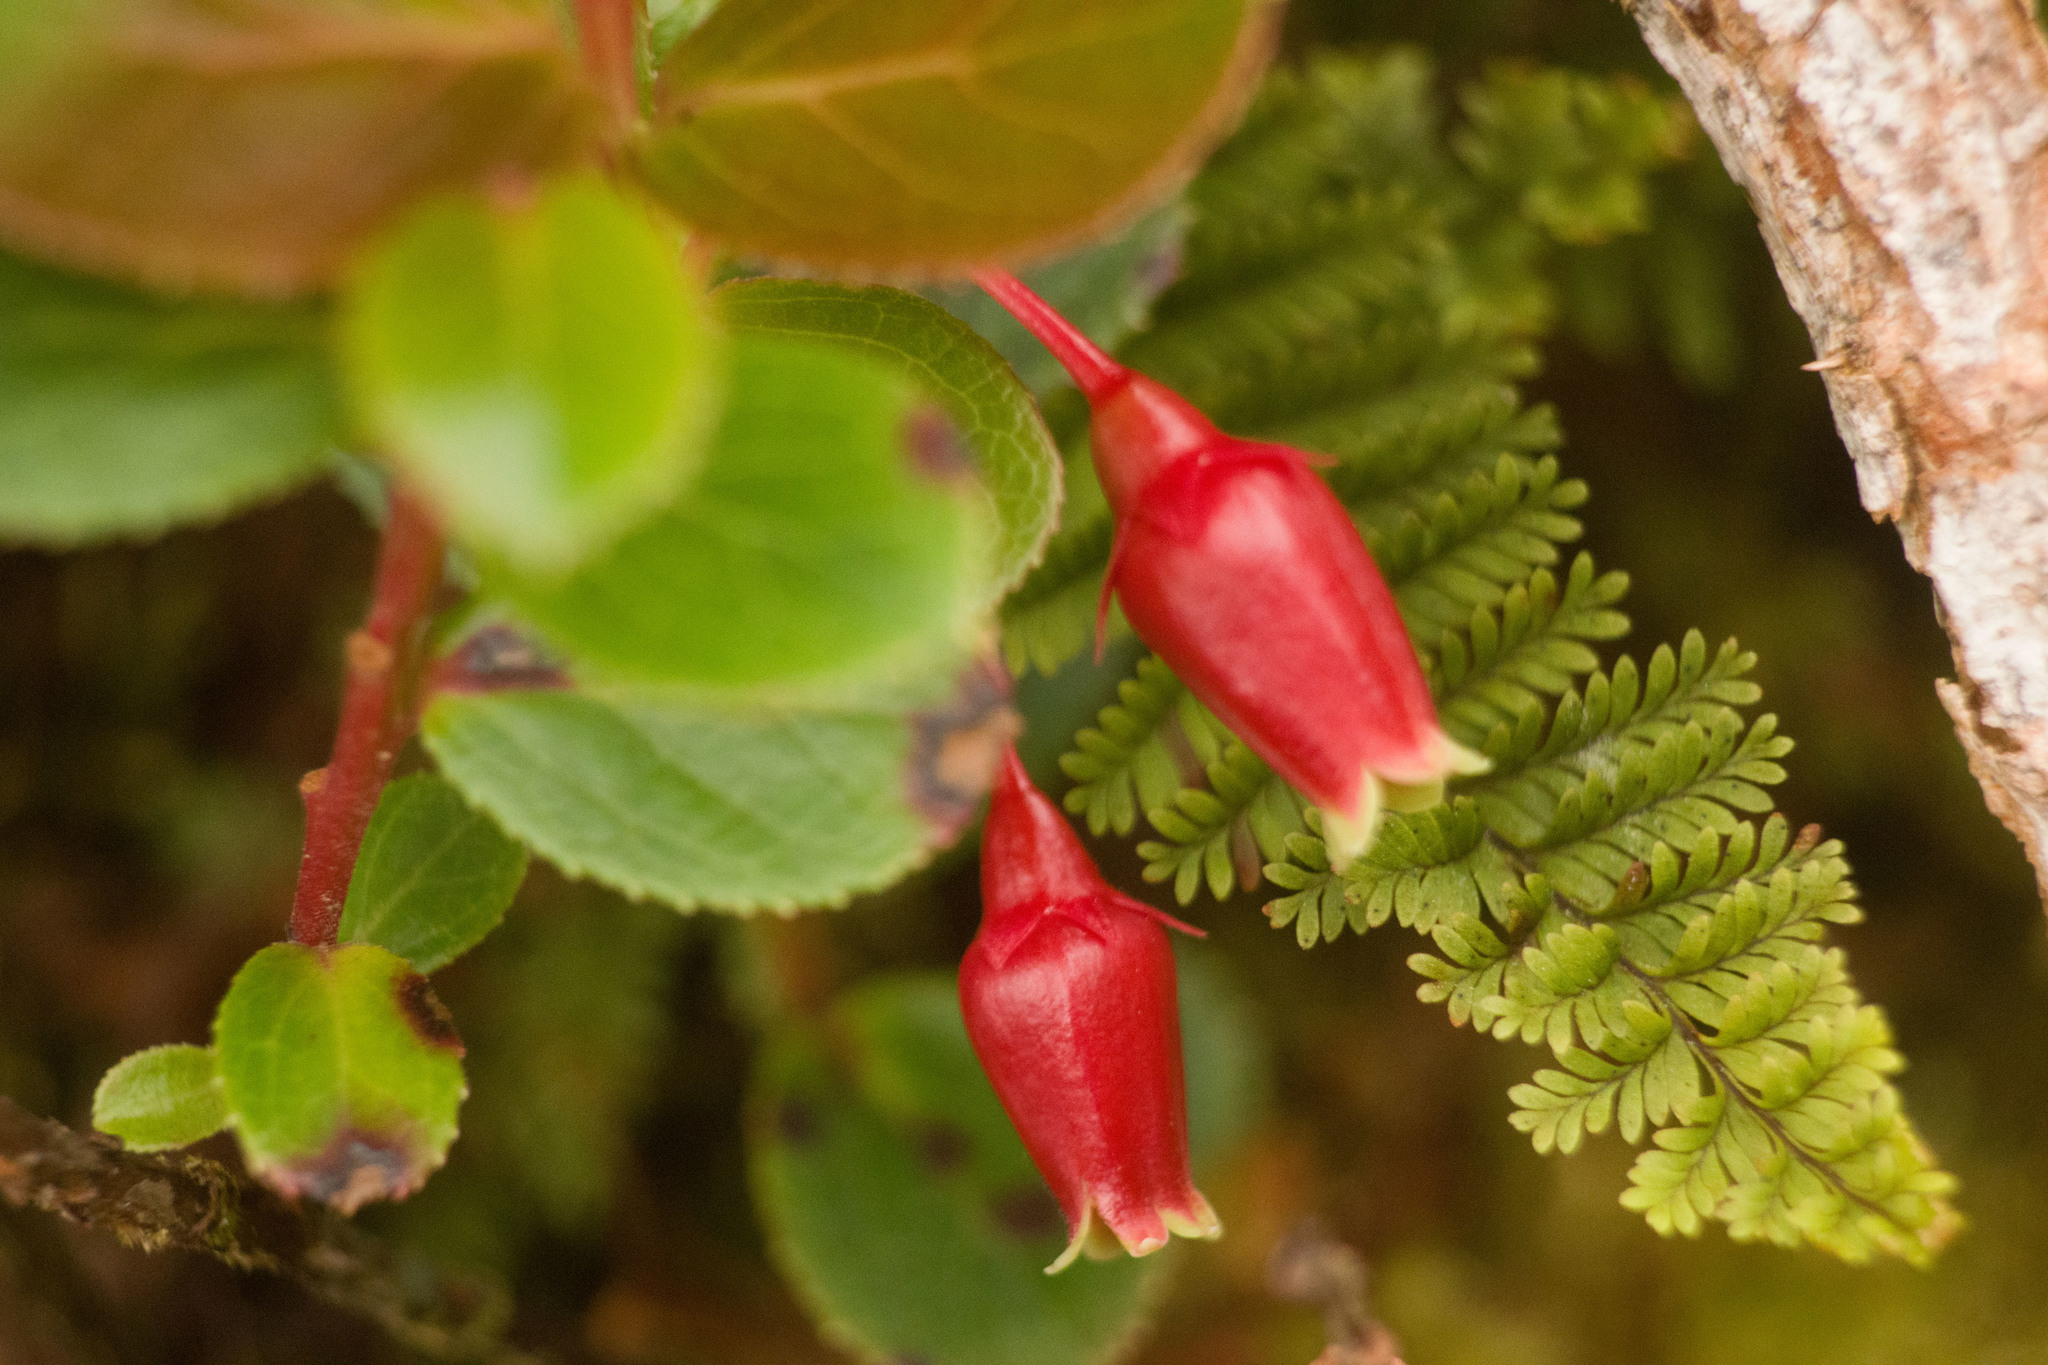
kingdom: Plantae
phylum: Tracheophyta
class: Magnoliopsida
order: Ericales
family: Ericaceae
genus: Vaccinium
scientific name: Vaccinium dentatum
